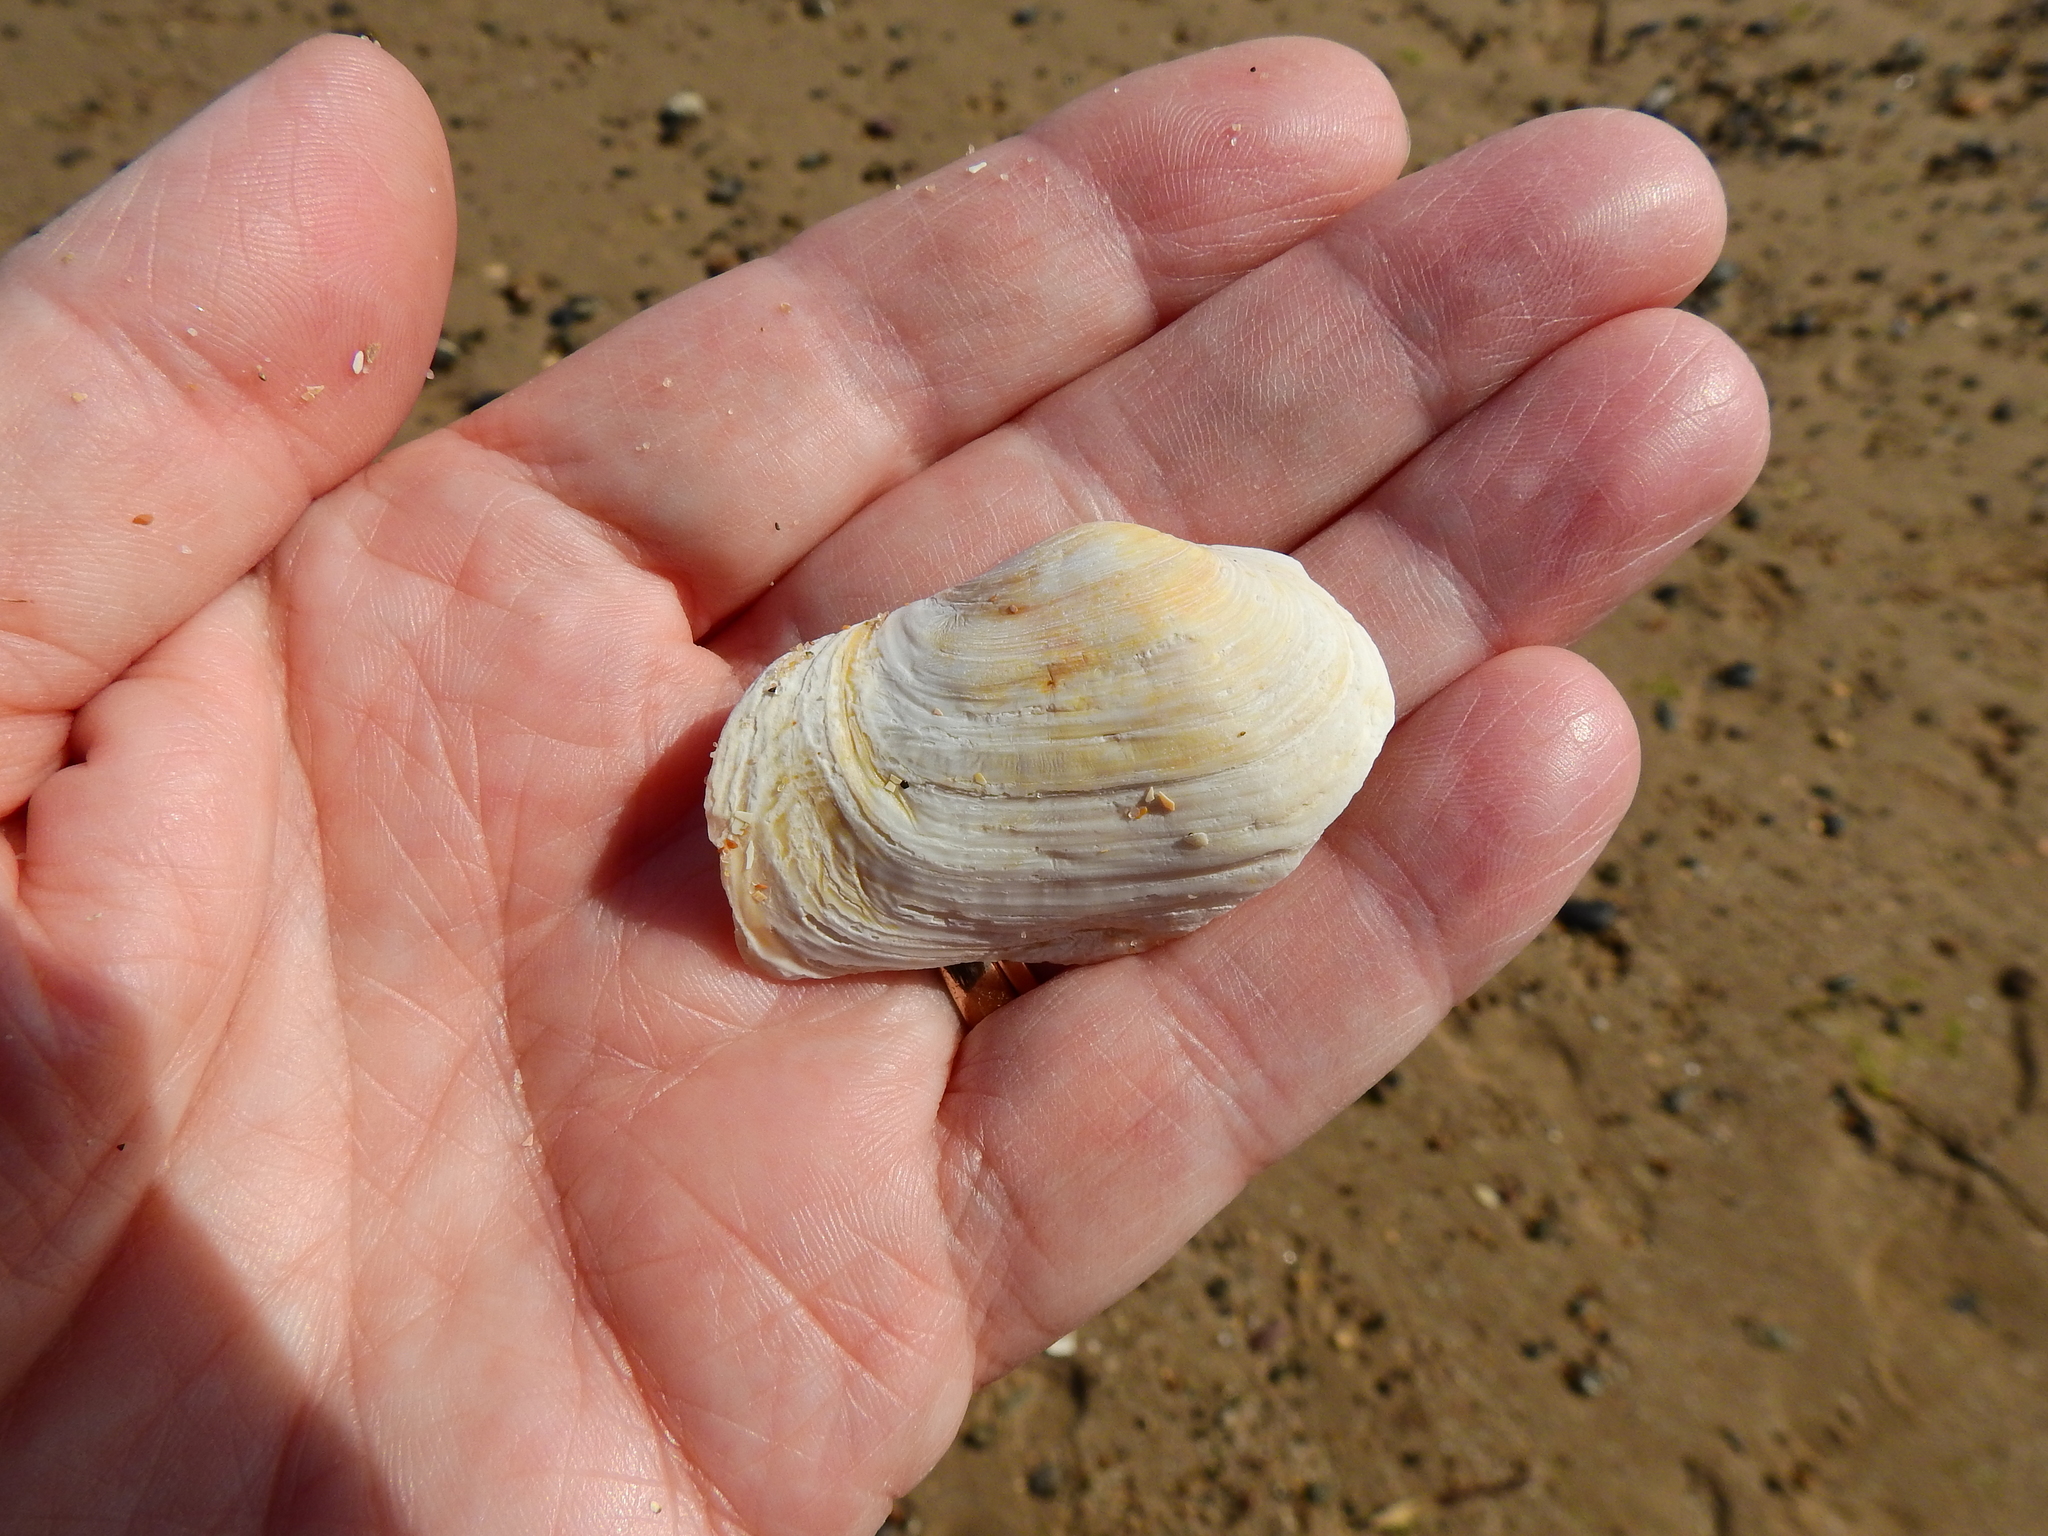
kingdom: Animalia
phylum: Mollusca
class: Bivalvia
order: Myida
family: Myidae
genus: Mya
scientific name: Mya truncata
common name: Blunt gaper
